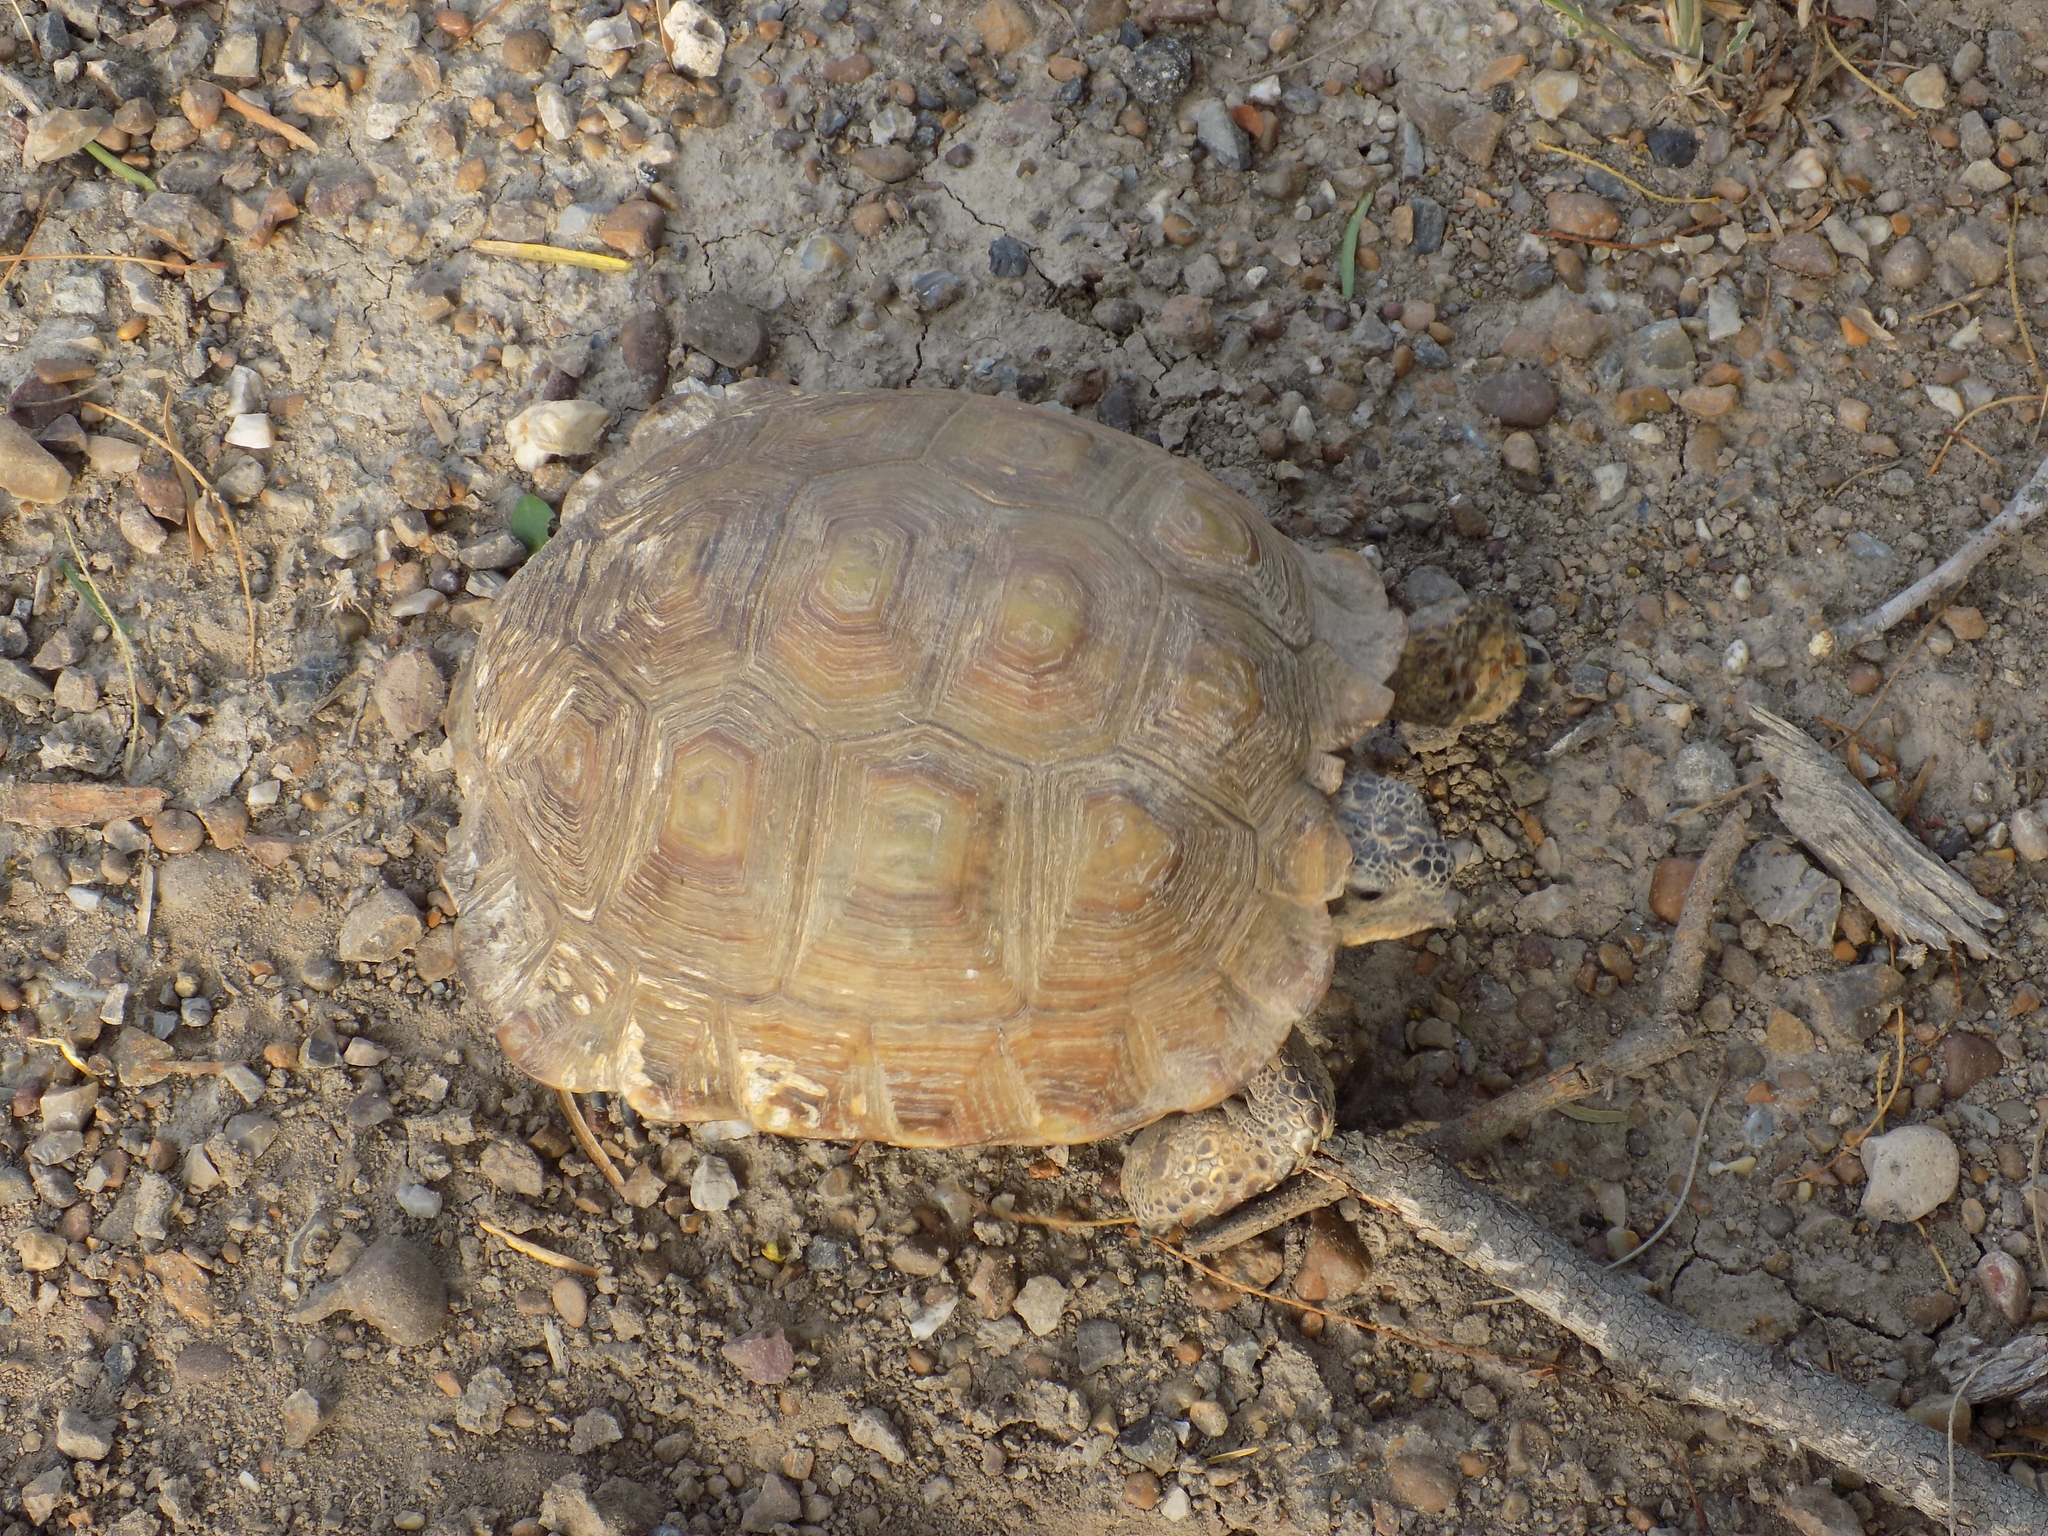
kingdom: Animalia
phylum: Chordata
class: Testudines
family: Testudinidae
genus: Gopherus
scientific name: Gopherus berlandieri
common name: Texas (gopher )tortoise
